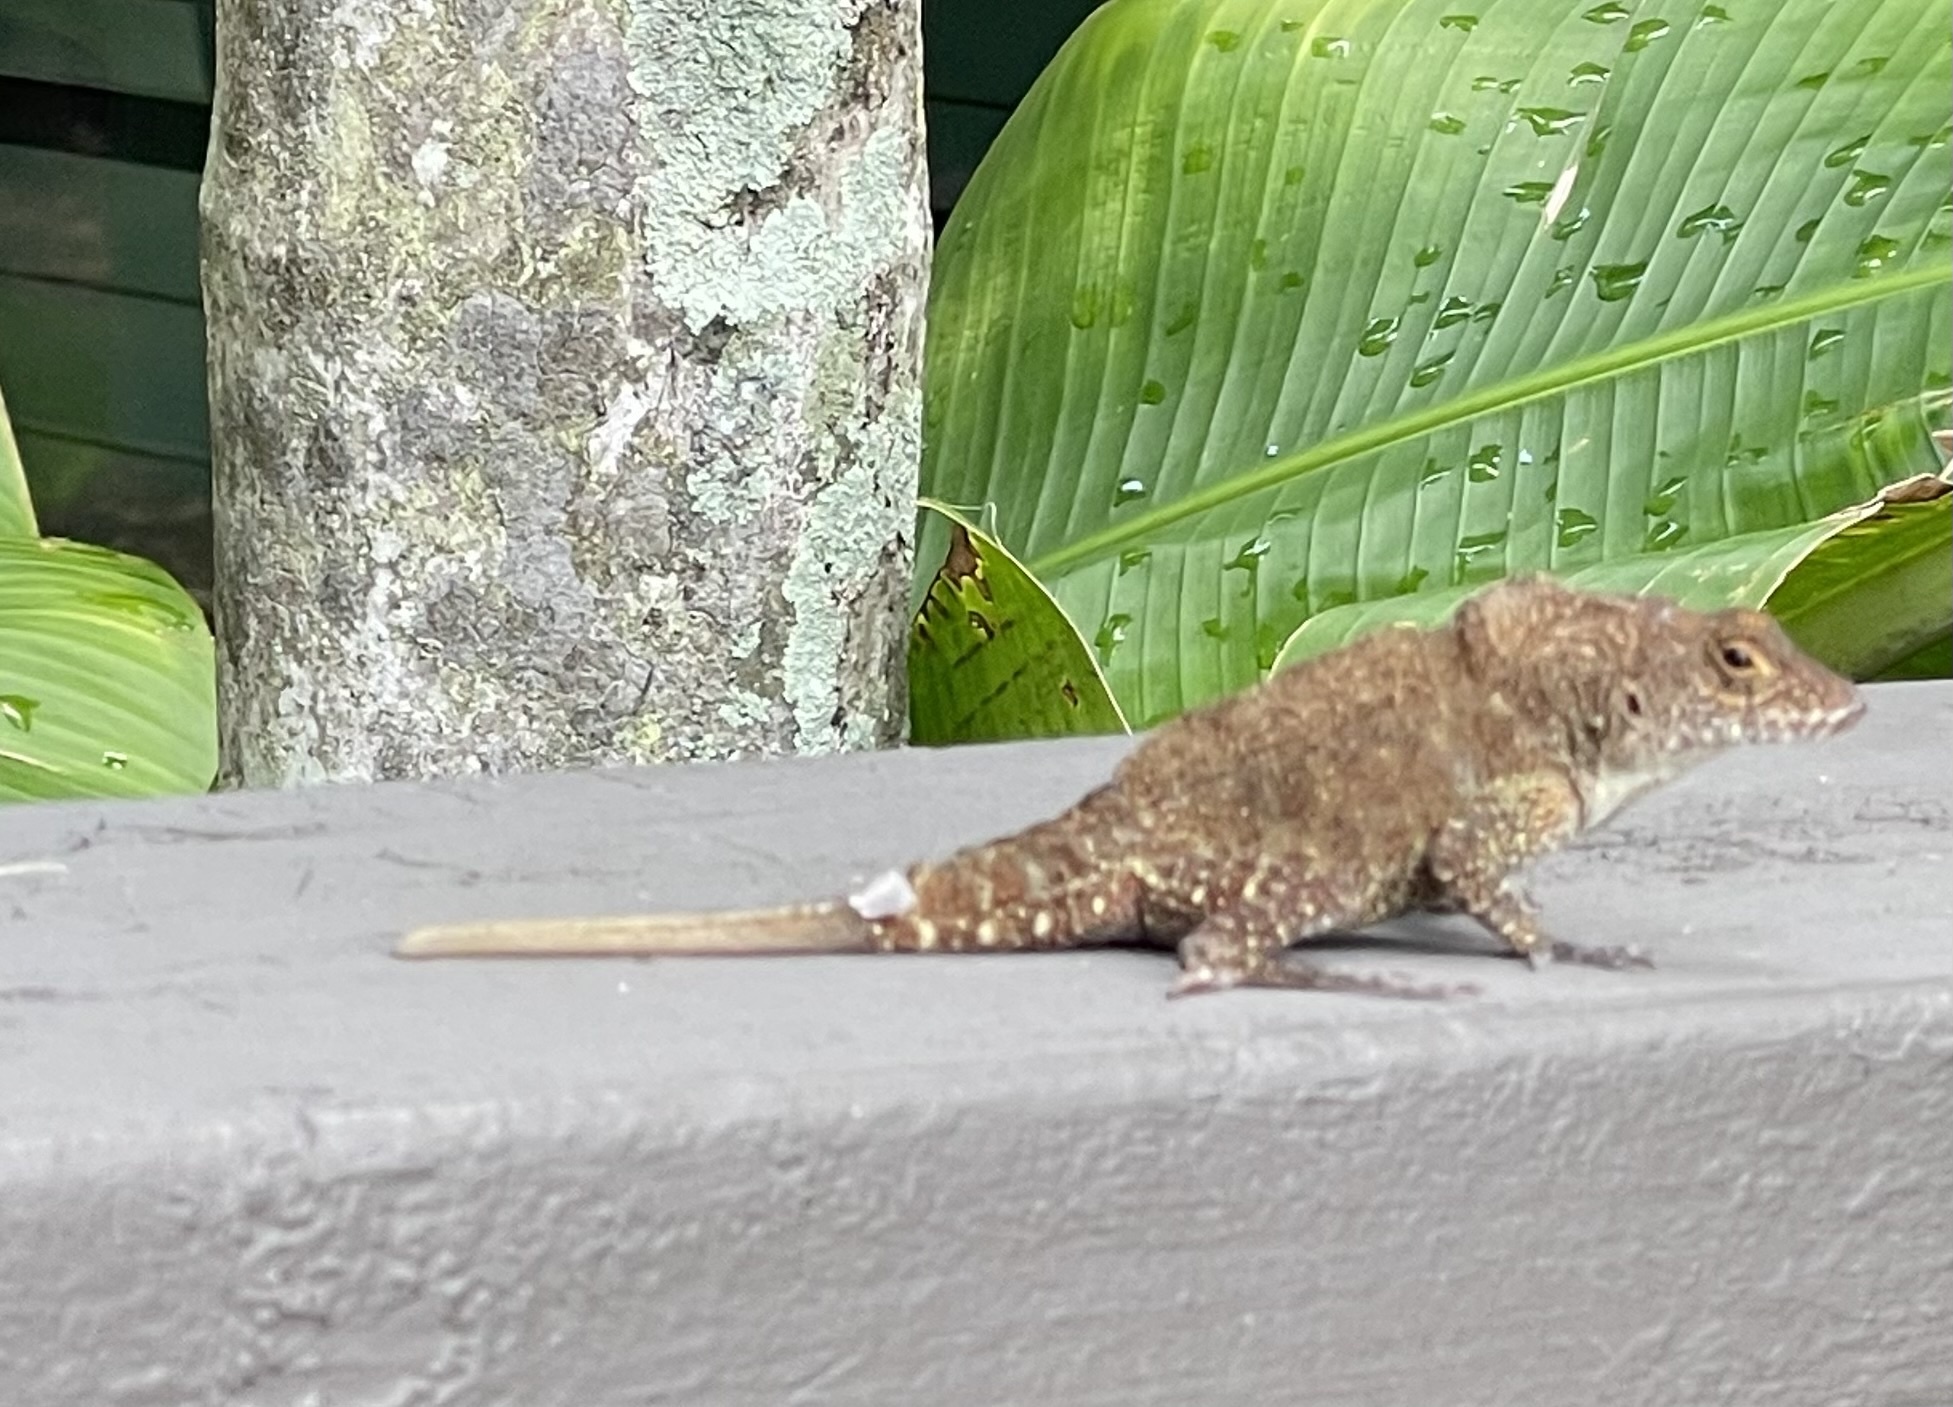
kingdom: Animalia
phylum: Chordata
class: Squamata
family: Dactyloidae
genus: Anolis
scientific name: Anolis cristatellus
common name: Crested anole
